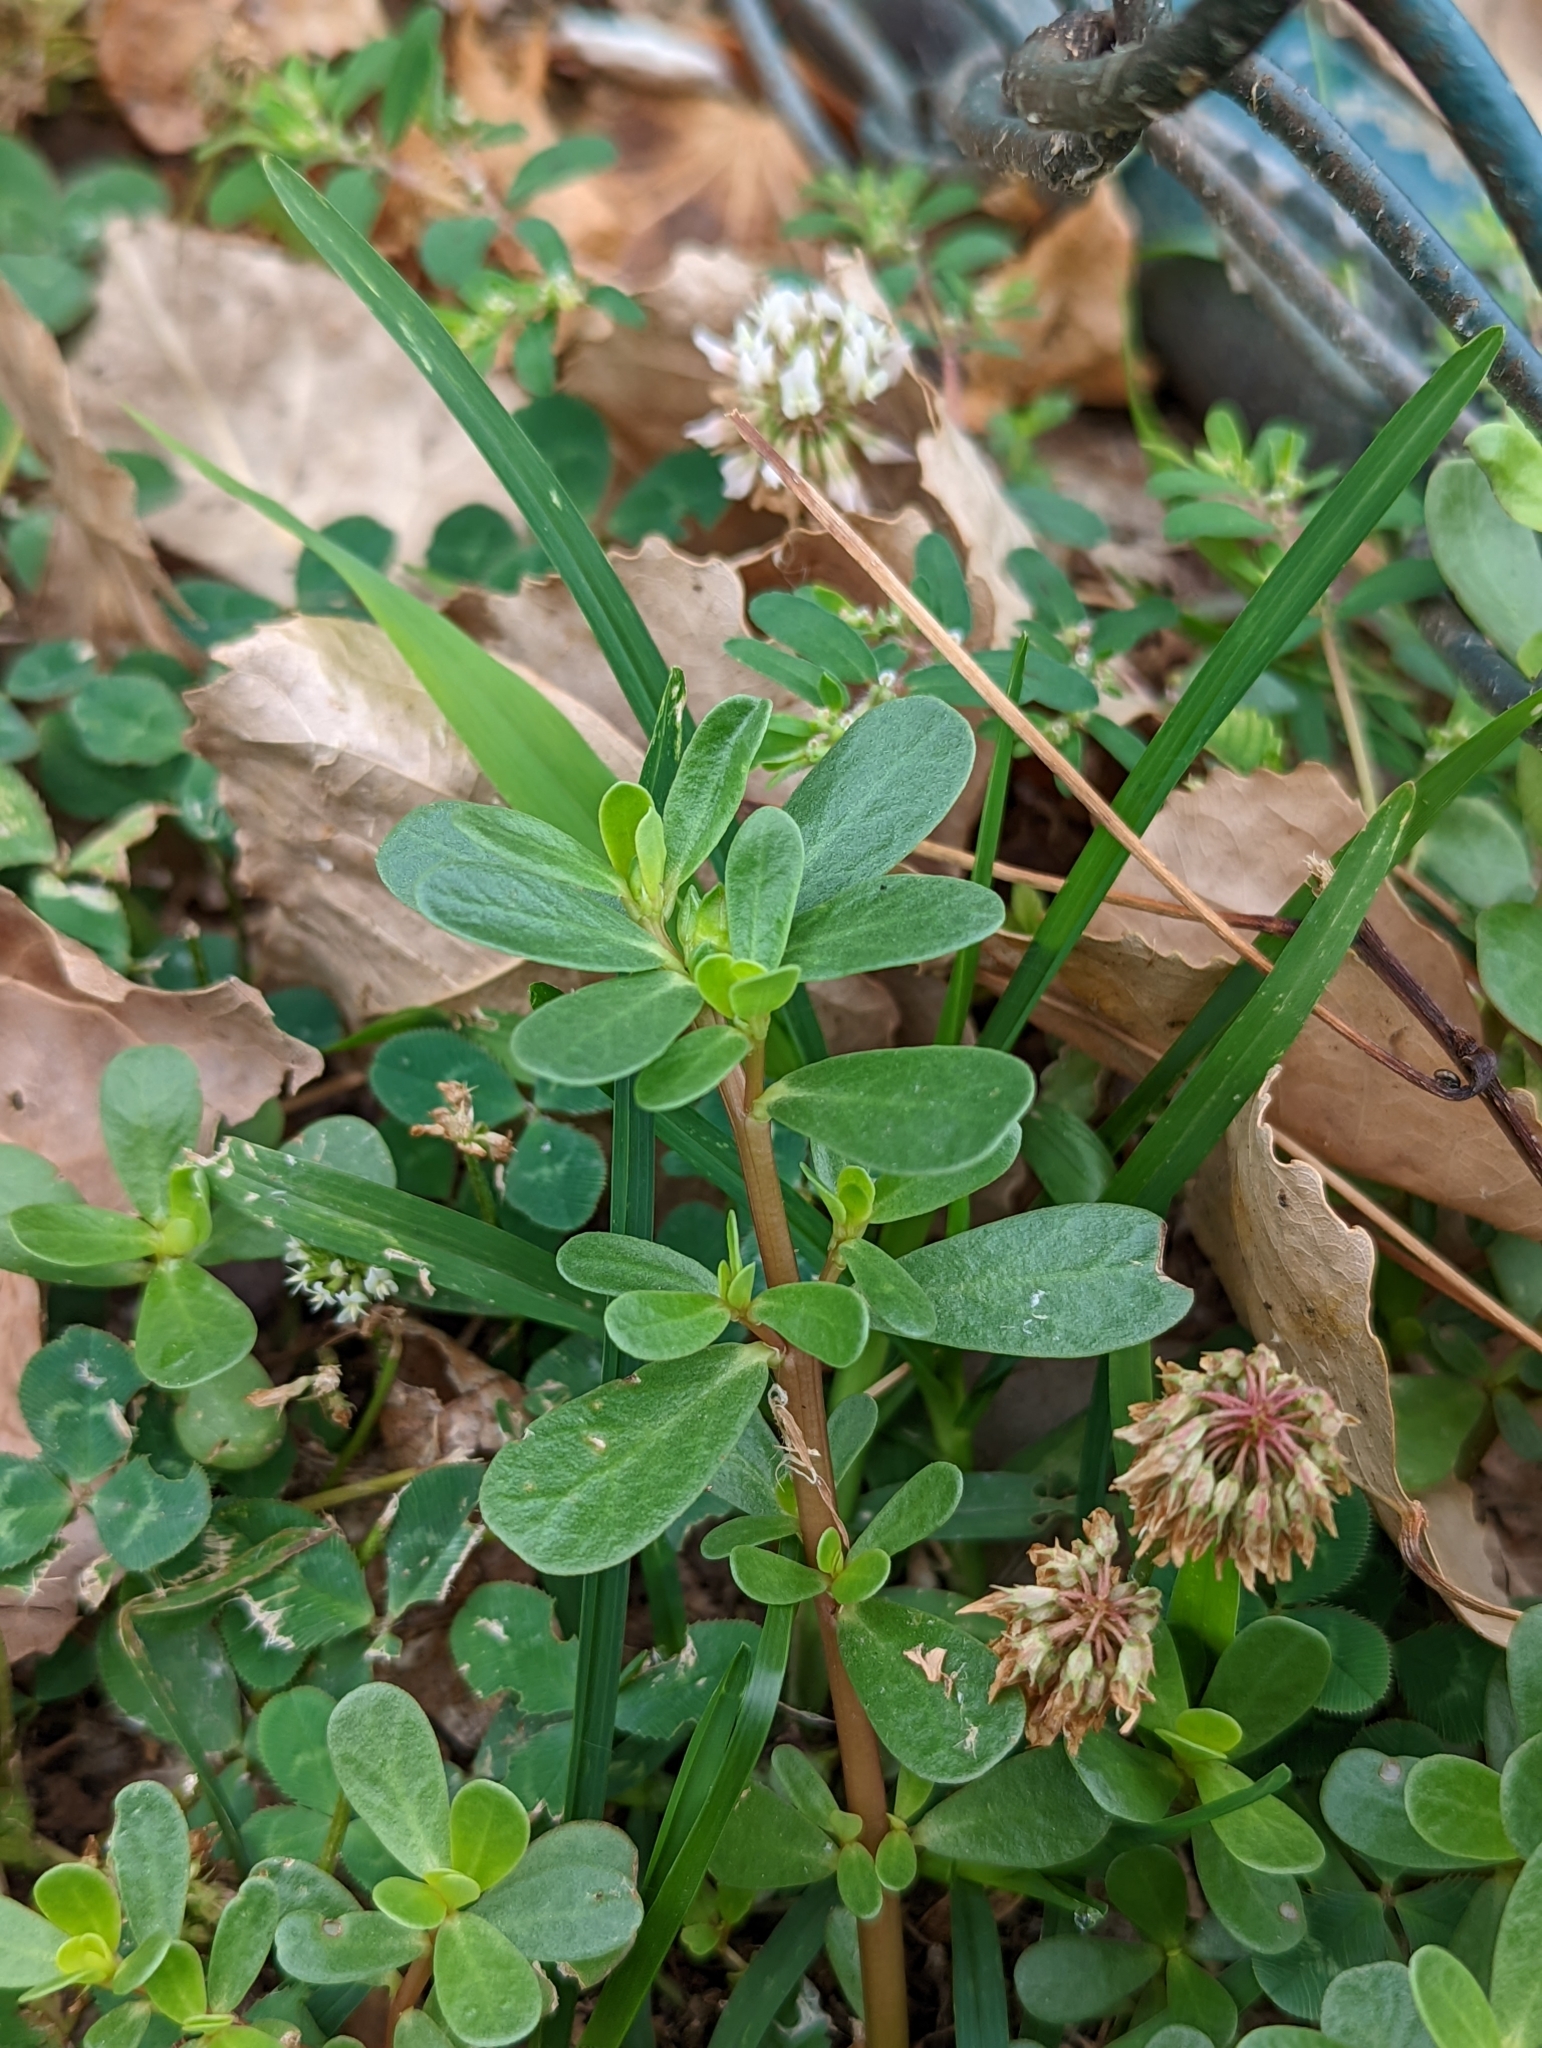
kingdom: Plantae
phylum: Tracheophyta
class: Magnoliopsida
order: Caryophyllales
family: Portulacaceae
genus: Portulaca
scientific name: Portulaca oleracea
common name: Common purslane
